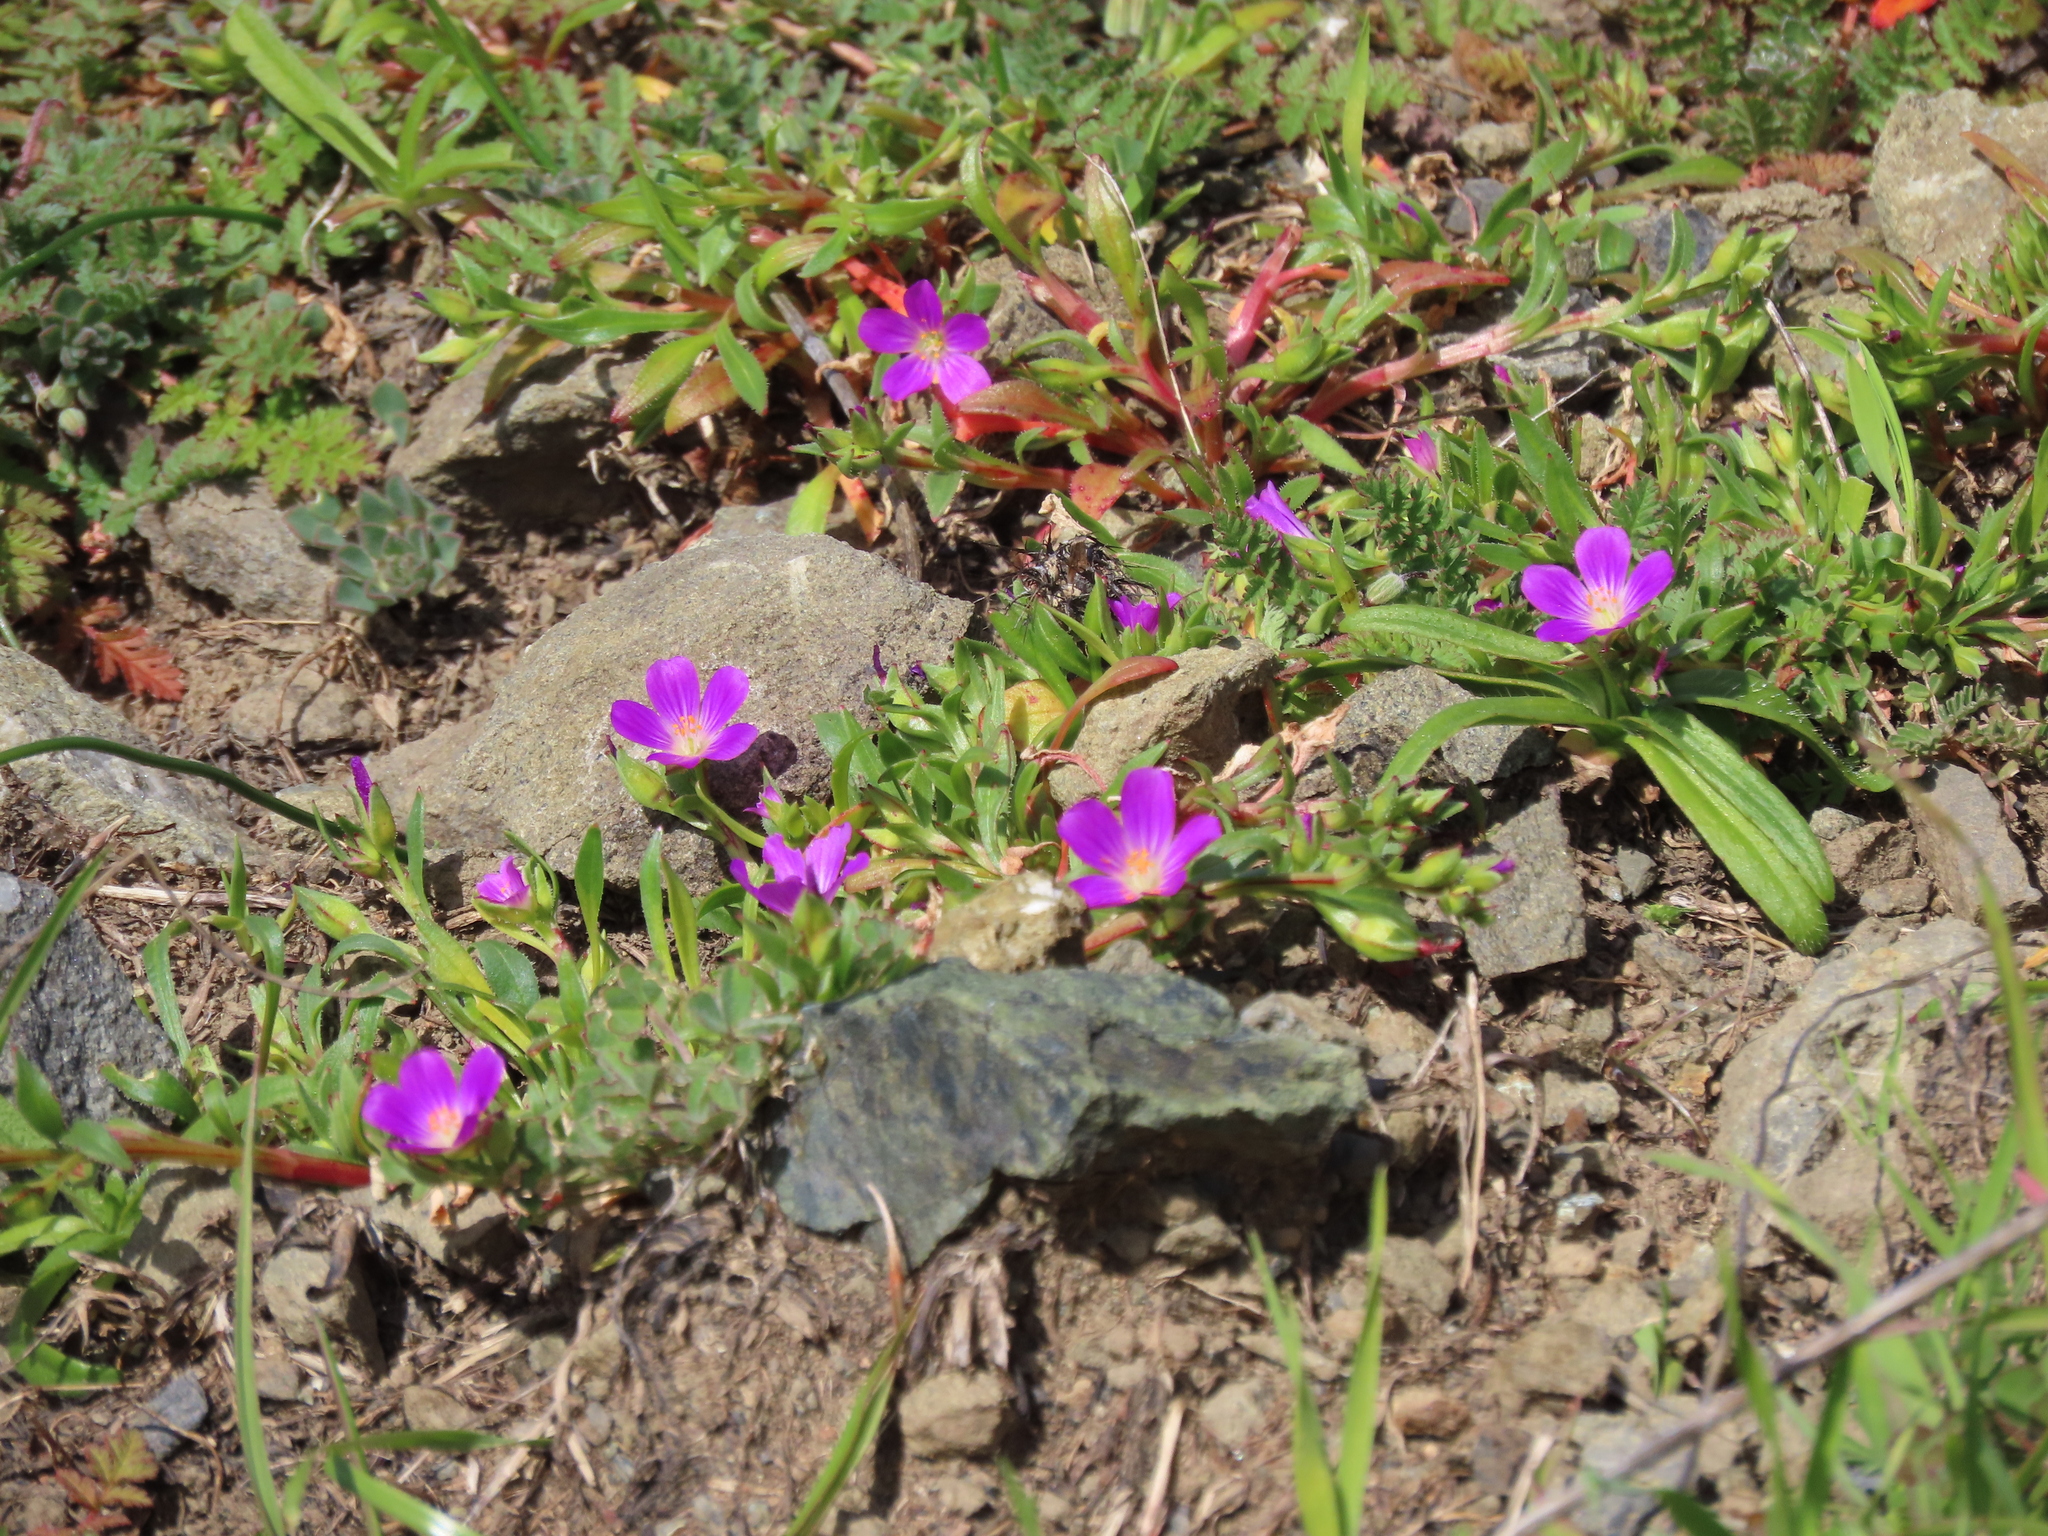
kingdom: Plantae
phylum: Tracheophyta
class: Magnoliopsida
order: Caryophyllales
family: Montiaceae
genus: Calandrinia
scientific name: Calandrinia menziesii
